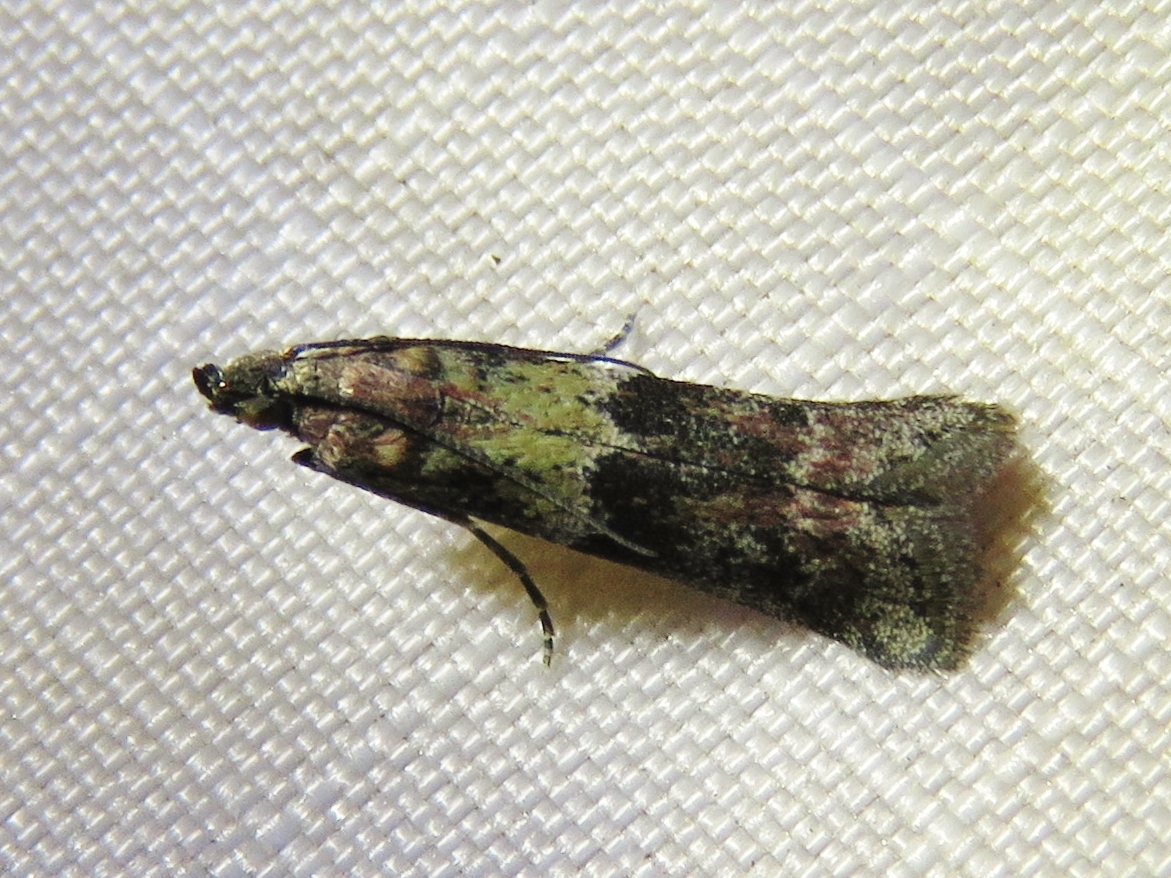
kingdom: Animalia
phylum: Arthropoda
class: Insecta
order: Lepidoptera
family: Pyralidae
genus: Ephestiodes
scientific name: Ephestiodes infimella
